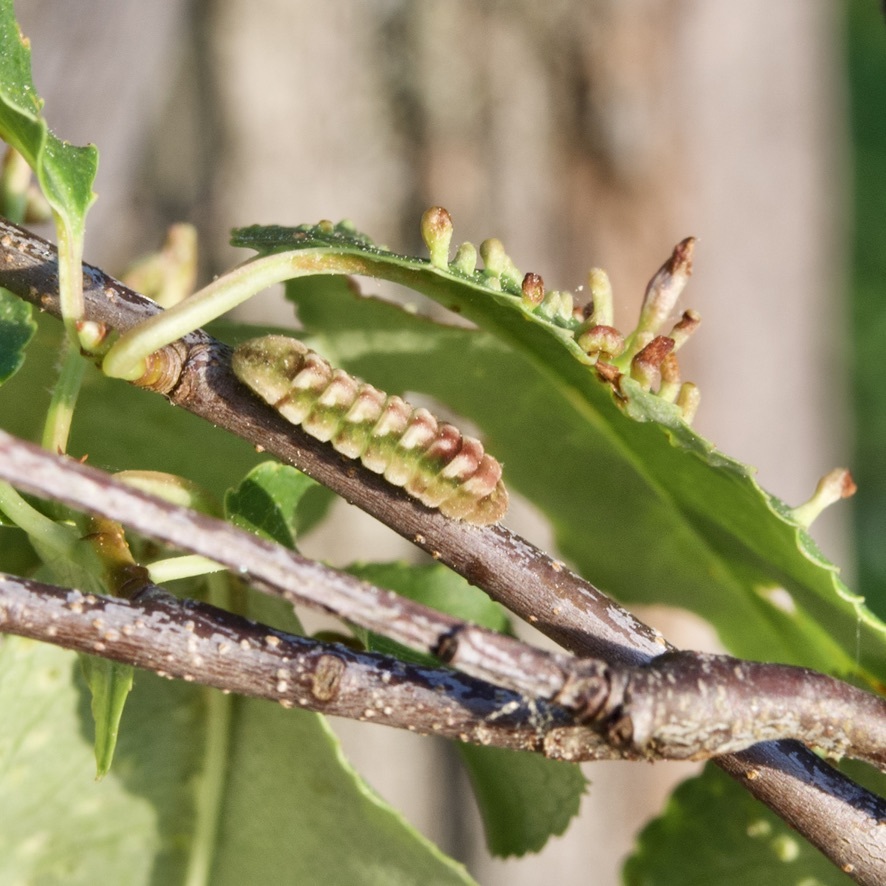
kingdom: Animalia
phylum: Arthropoda
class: Insecta
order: Lepidoptera
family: Lycaenidae
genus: Celastrina
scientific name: Celastrina serotina
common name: Cherry gall azure
